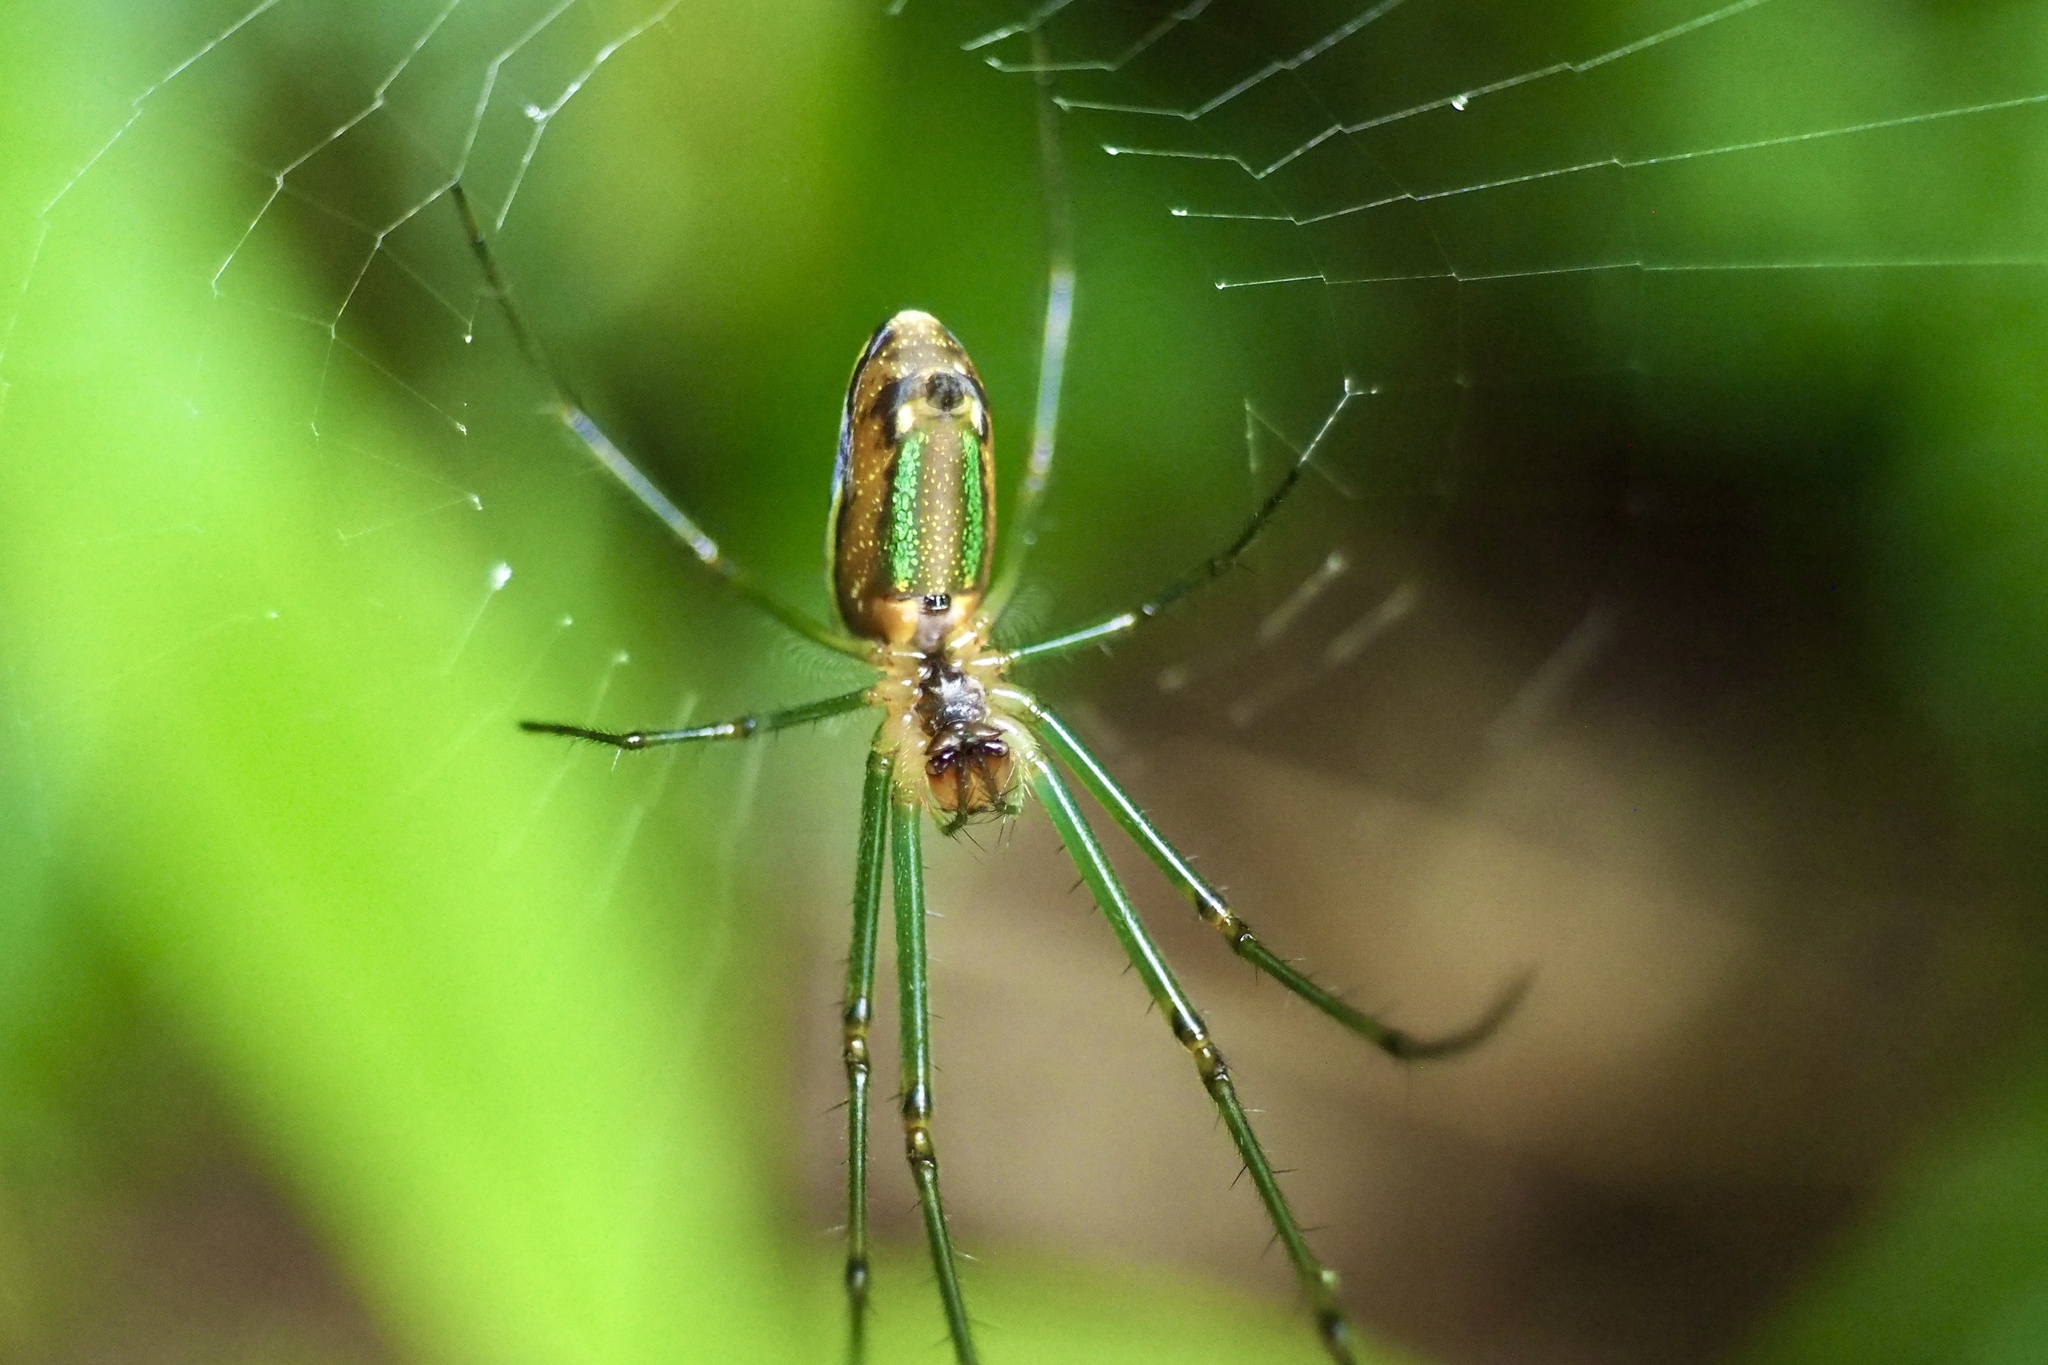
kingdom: Animalia
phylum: Arthropoda
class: Arachnida
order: Araneae
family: Tetragnathidae
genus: Leucauge
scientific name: Leucauge subblanda
